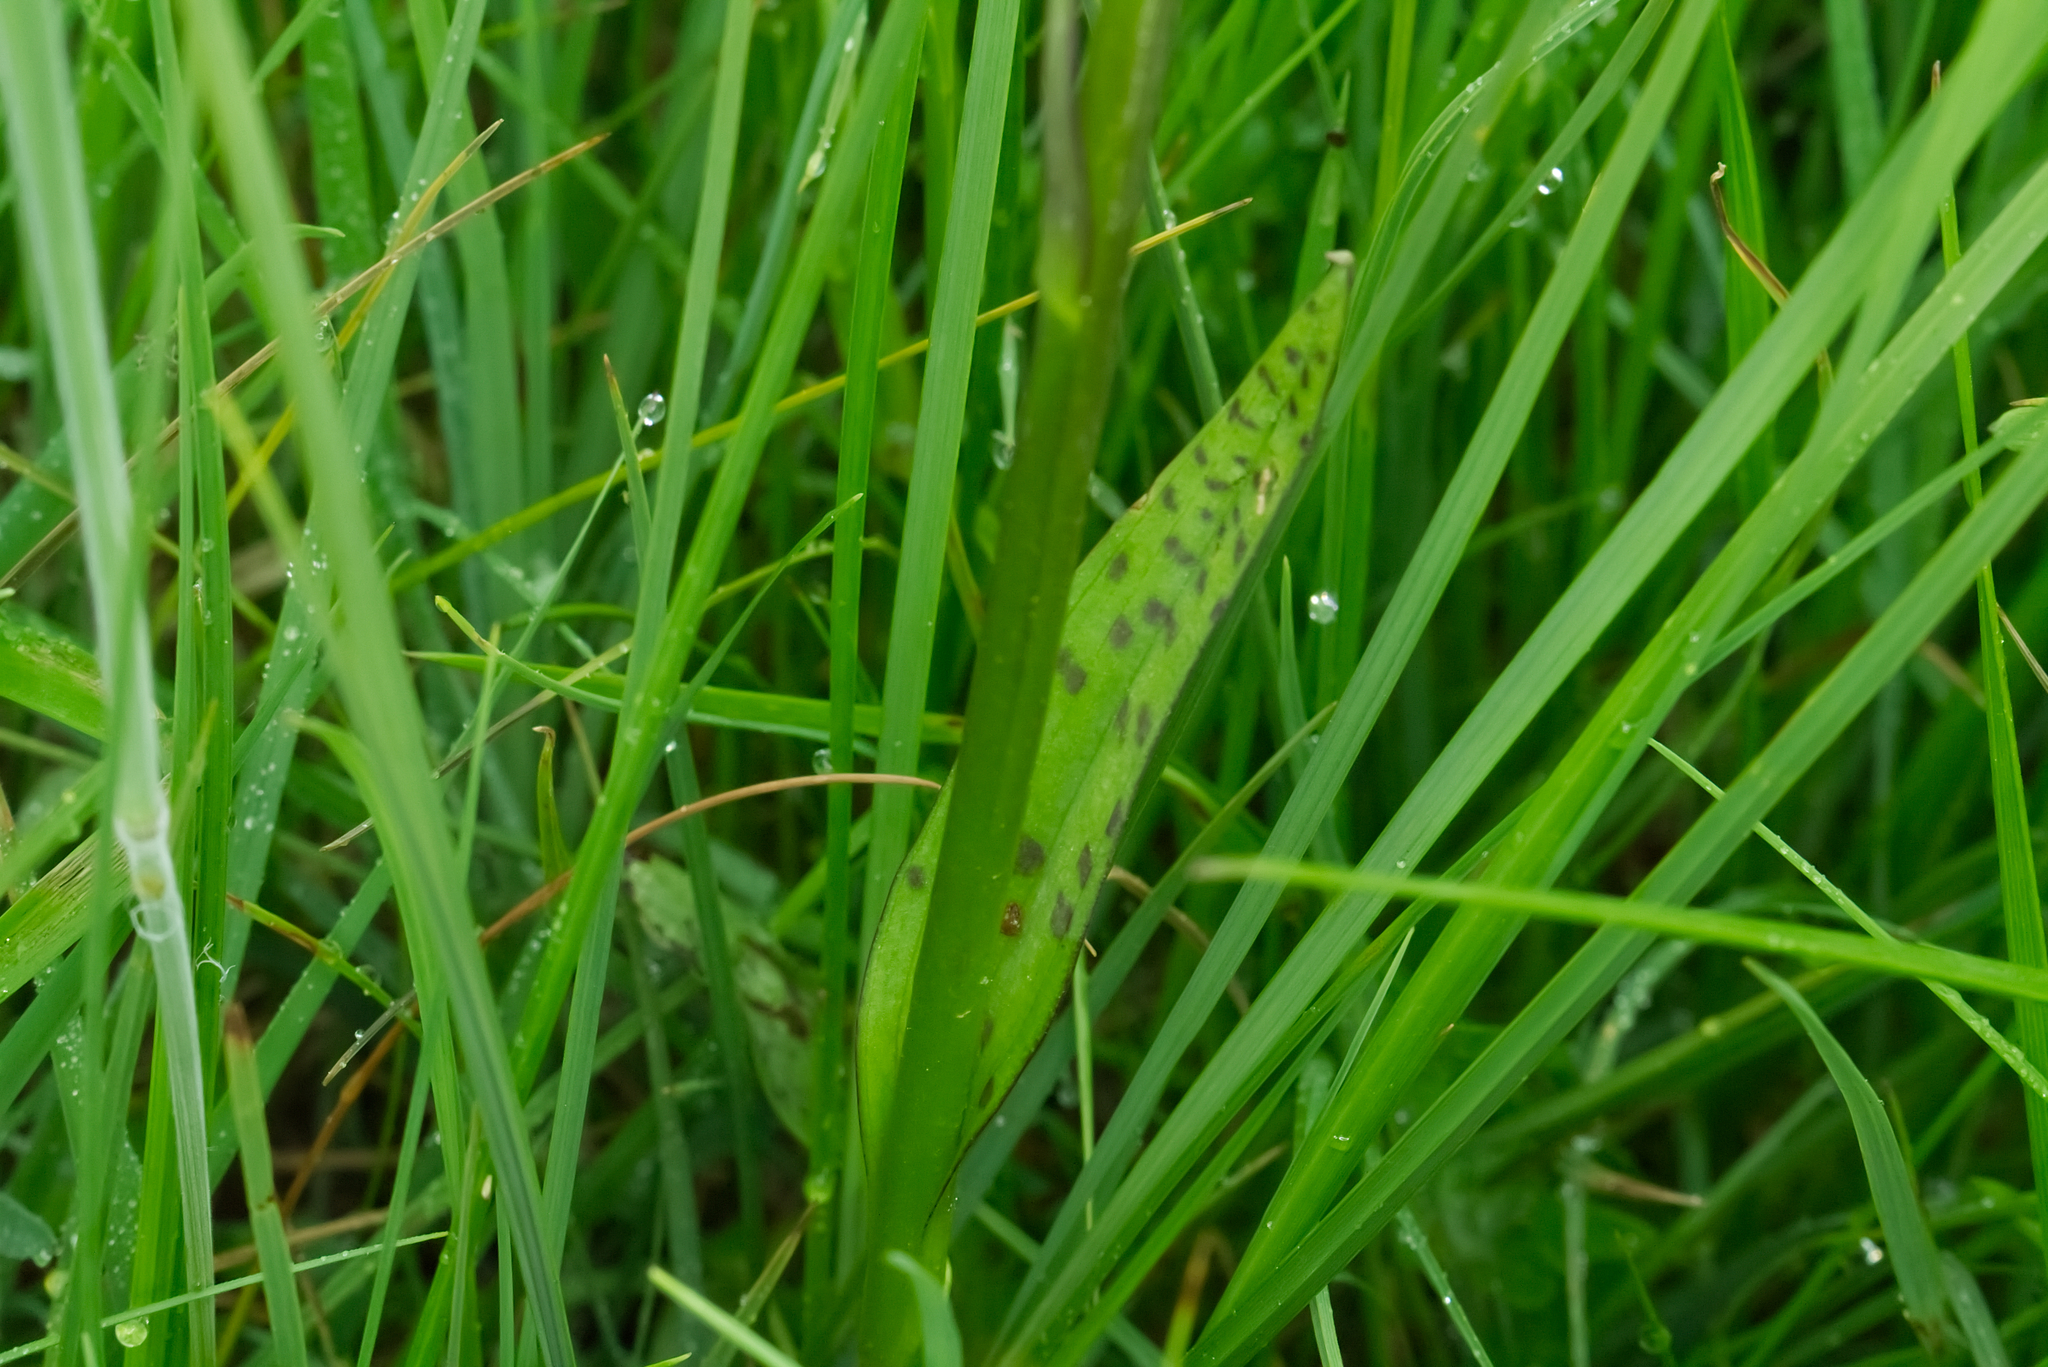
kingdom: Plantae
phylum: Tracheophyta
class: Liliopsida
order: Asparagales
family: Orchidaceae
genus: Dactylorhiza
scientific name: Dactylorhiza majalis
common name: Marsh orchid
